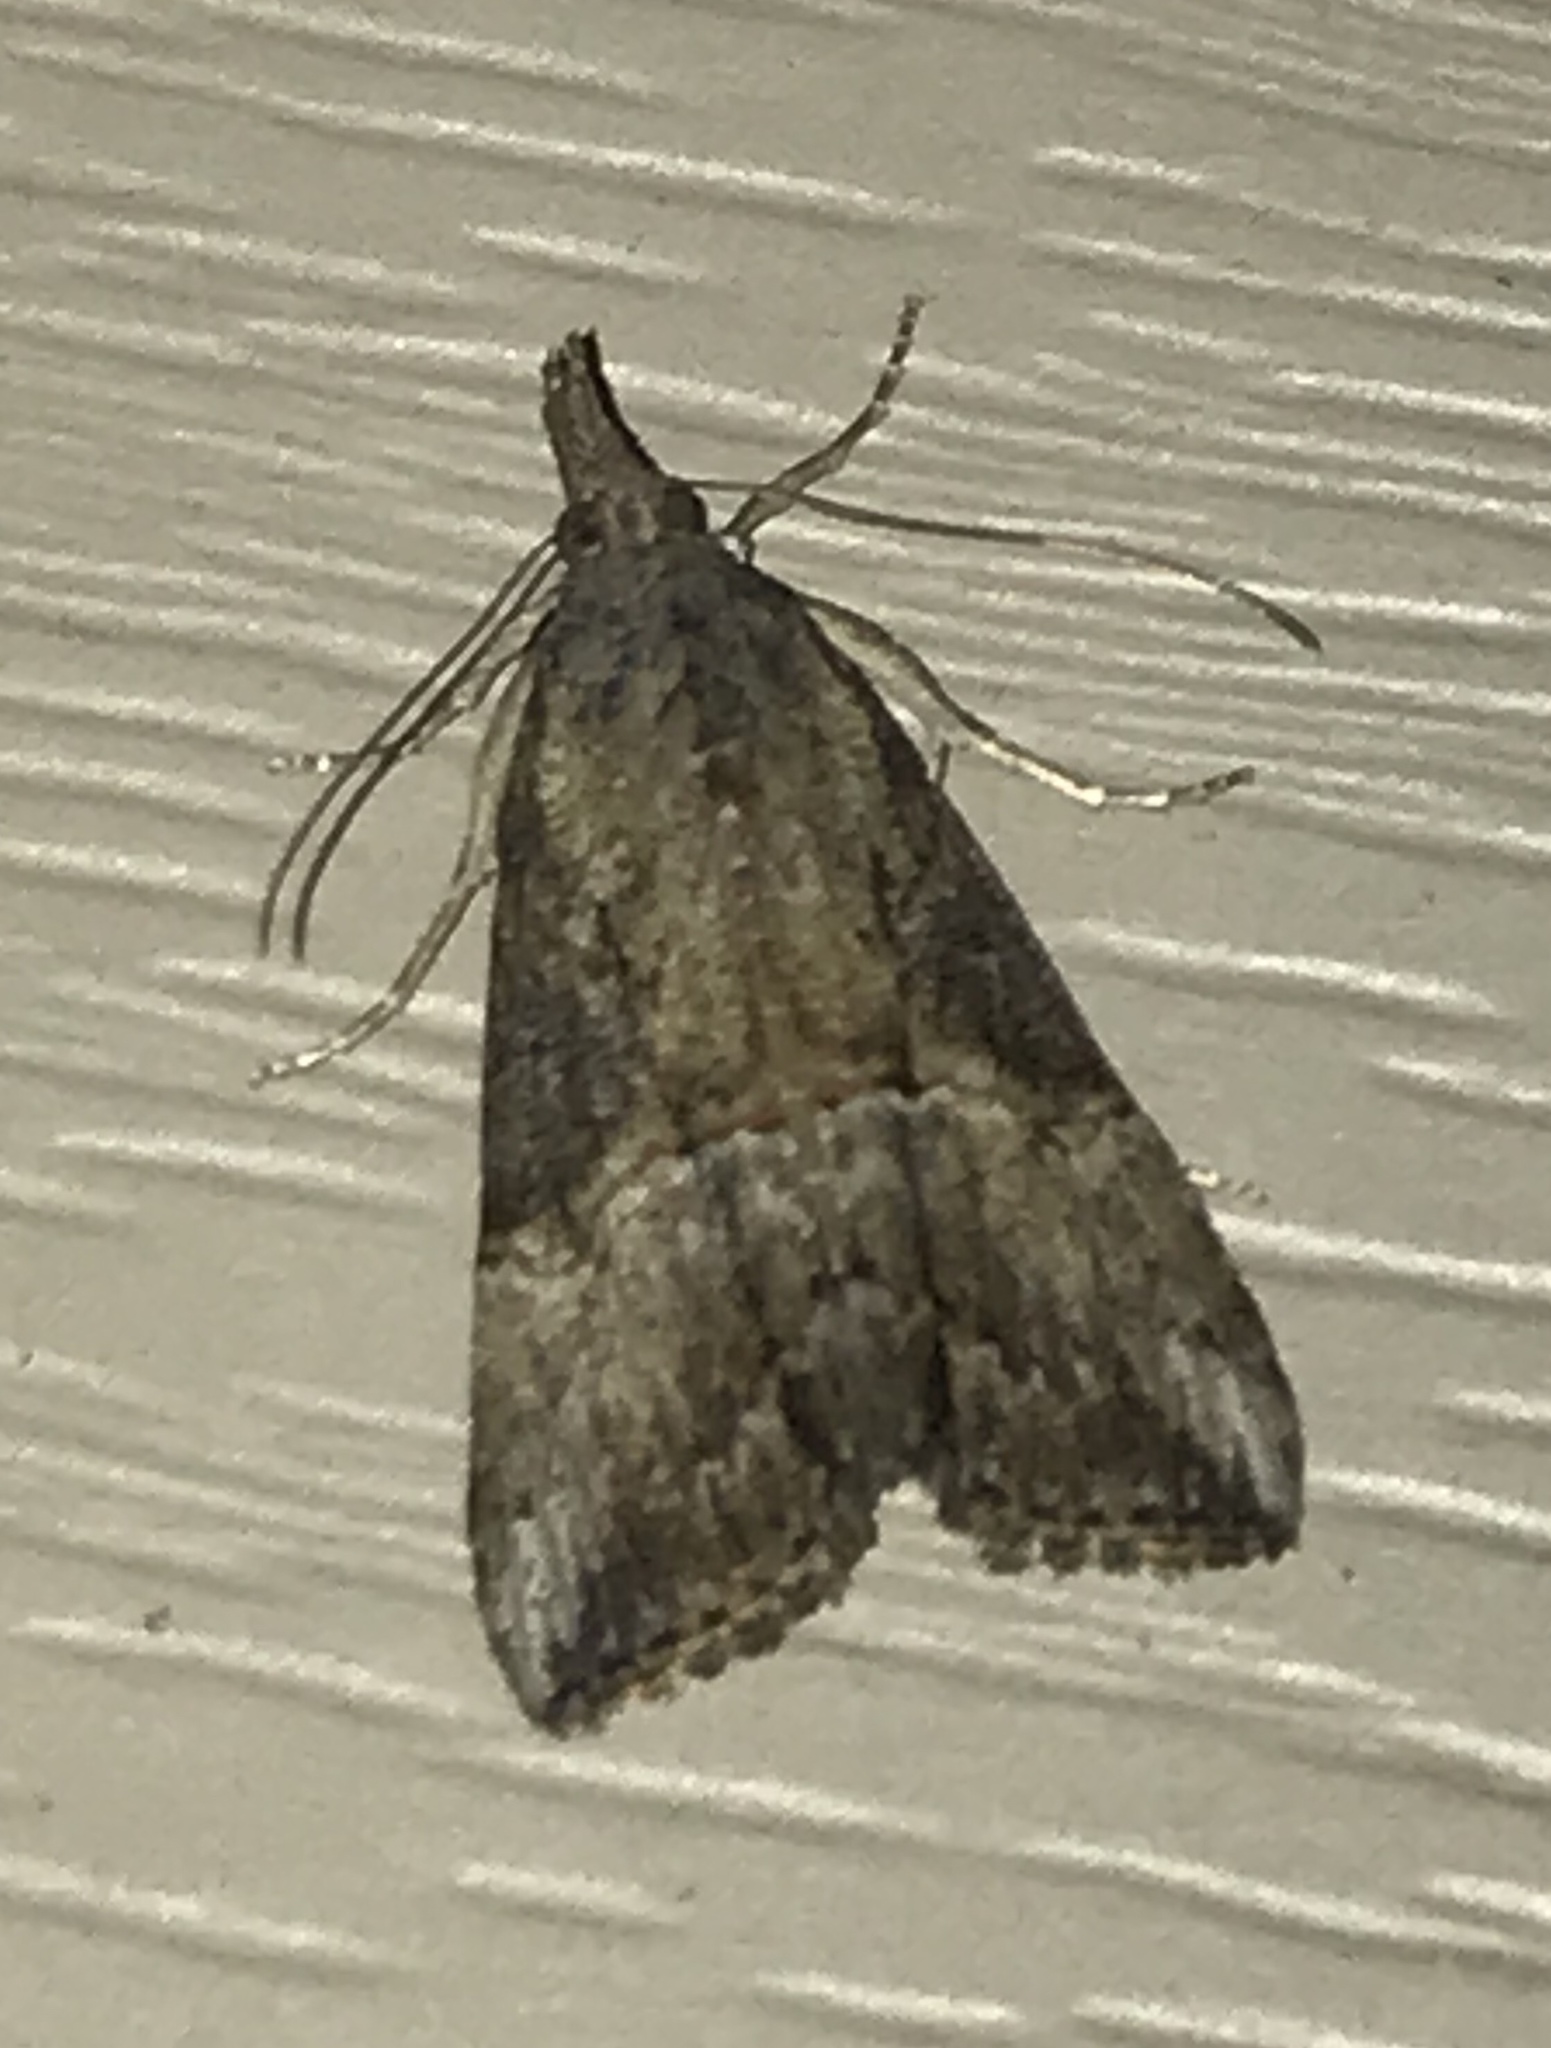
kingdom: Animalia
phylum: Arthropoda
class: Insecta
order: Lepidoptera
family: Erebidae
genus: Hypena
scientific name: Hypena scabra
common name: Green cloverworm
